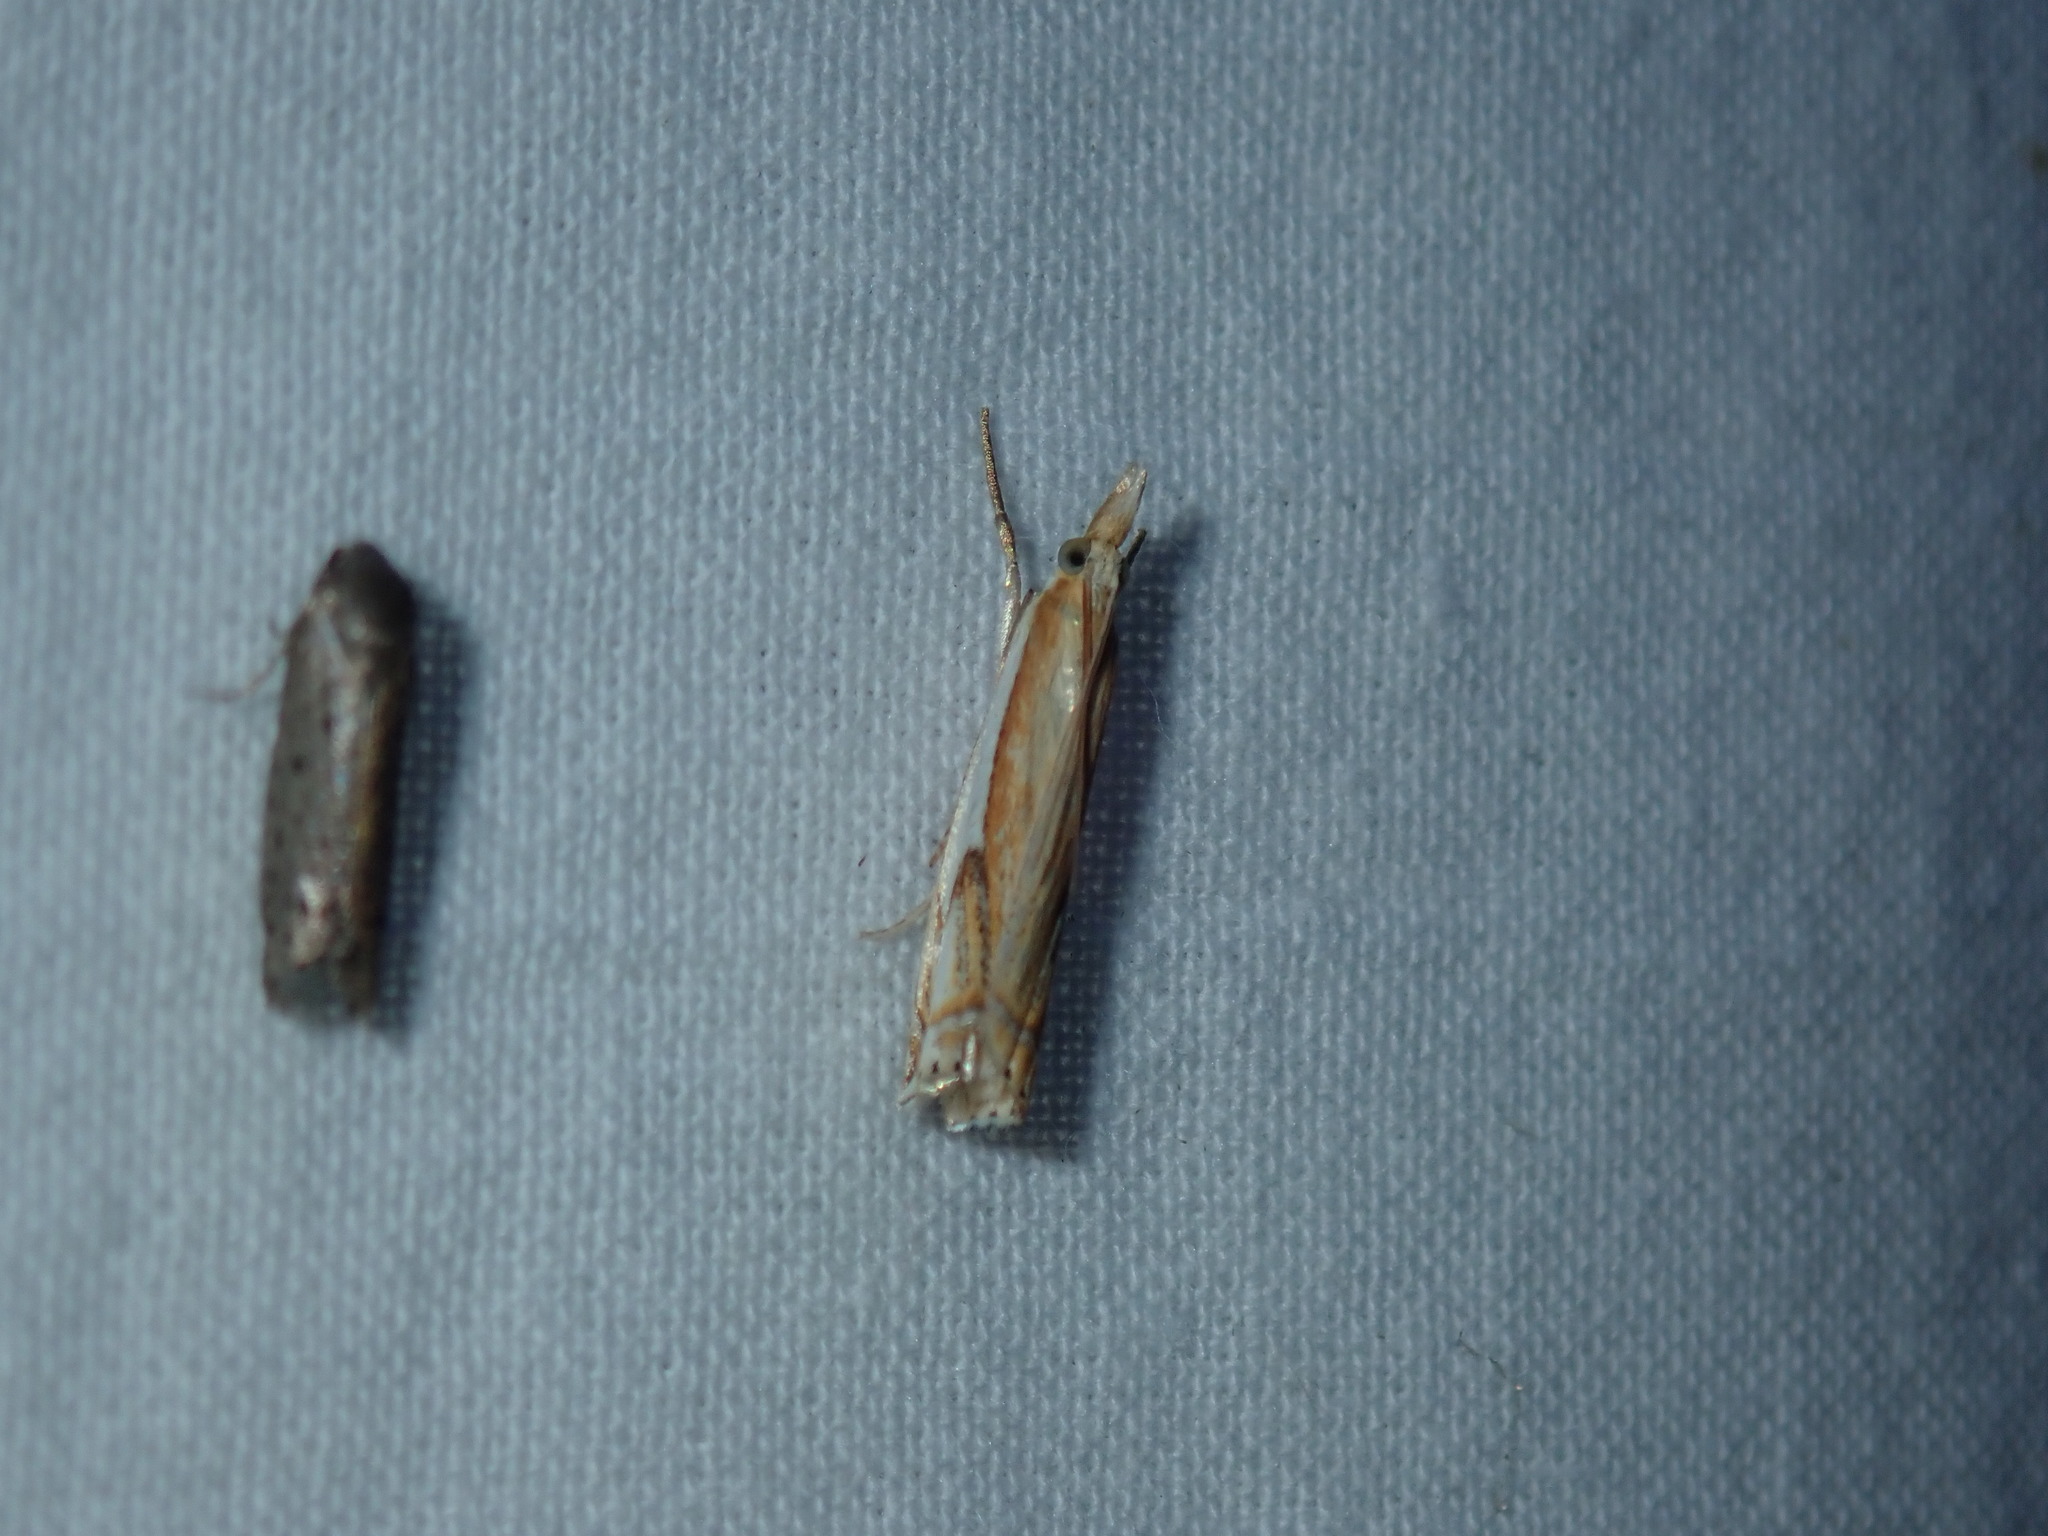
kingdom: Animalia
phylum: Arthropoda
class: Insecta
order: Lepidoptera
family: Crambidae
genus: Crambus
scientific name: Crambus agitatellus
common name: Double-banded grass-veneer
